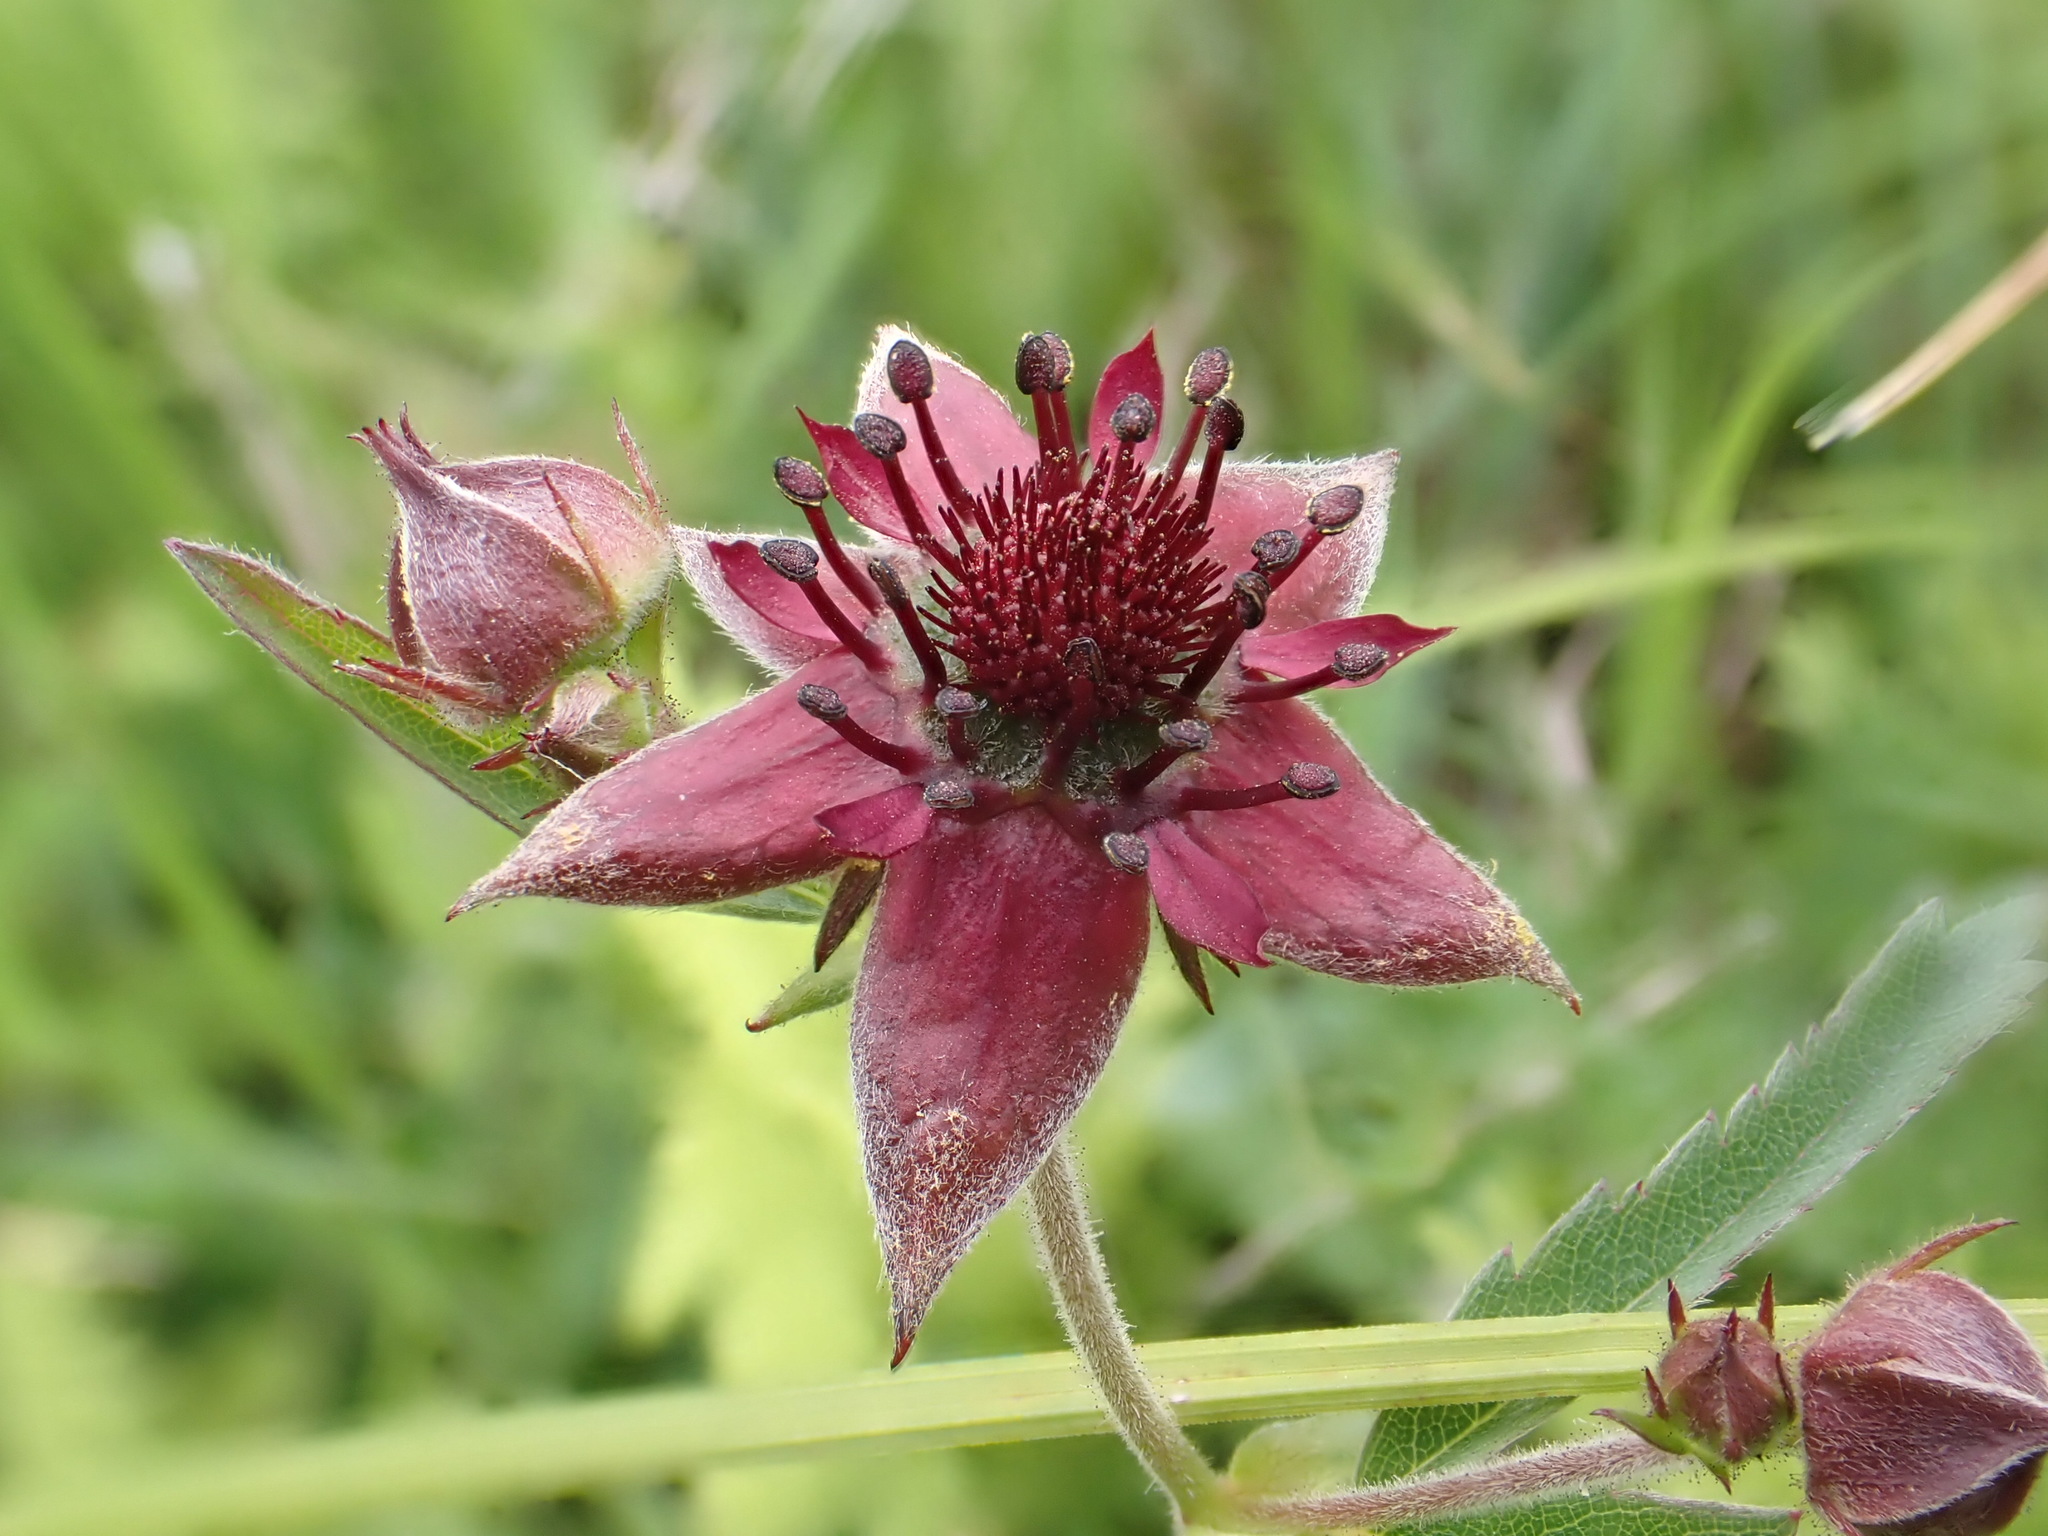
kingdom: Plantae
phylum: Tracheophyta
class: Magnoliopsida
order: Rosales
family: Rosaceae
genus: Comarum
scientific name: Comarum palustre
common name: Marsh cinquefoil
